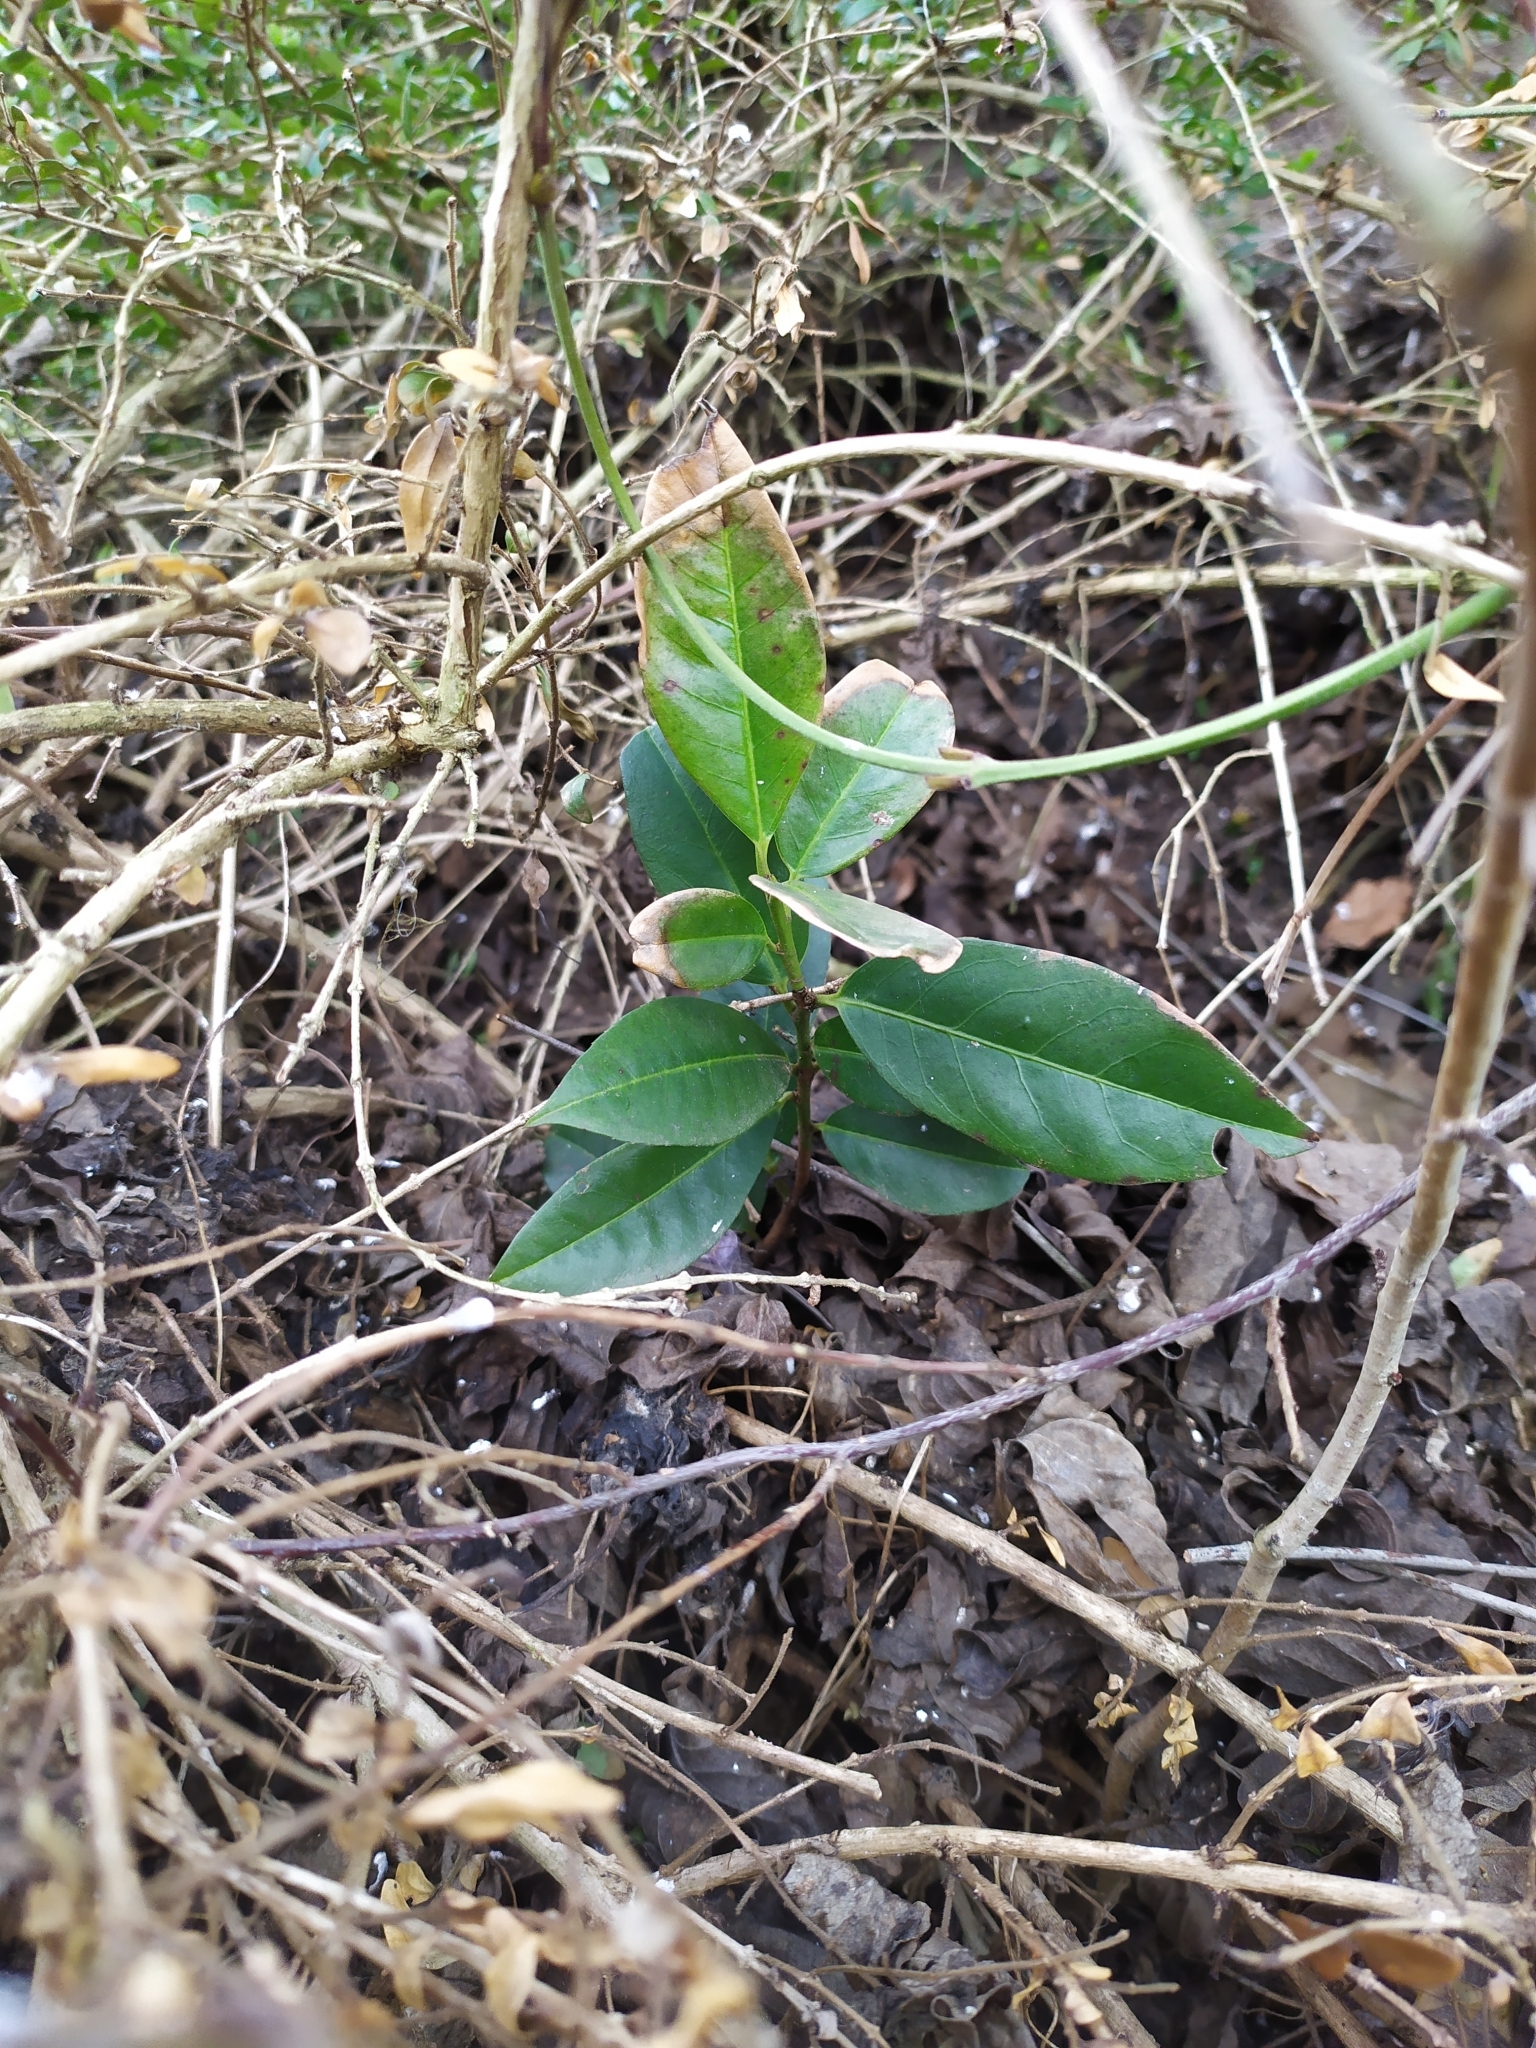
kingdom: Plantae
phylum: Tracheophyta
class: Magnoliopsida
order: Rosales
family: Rosaceae
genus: Prunus
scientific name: Prunus laurocerasus
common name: Cherry laurel
